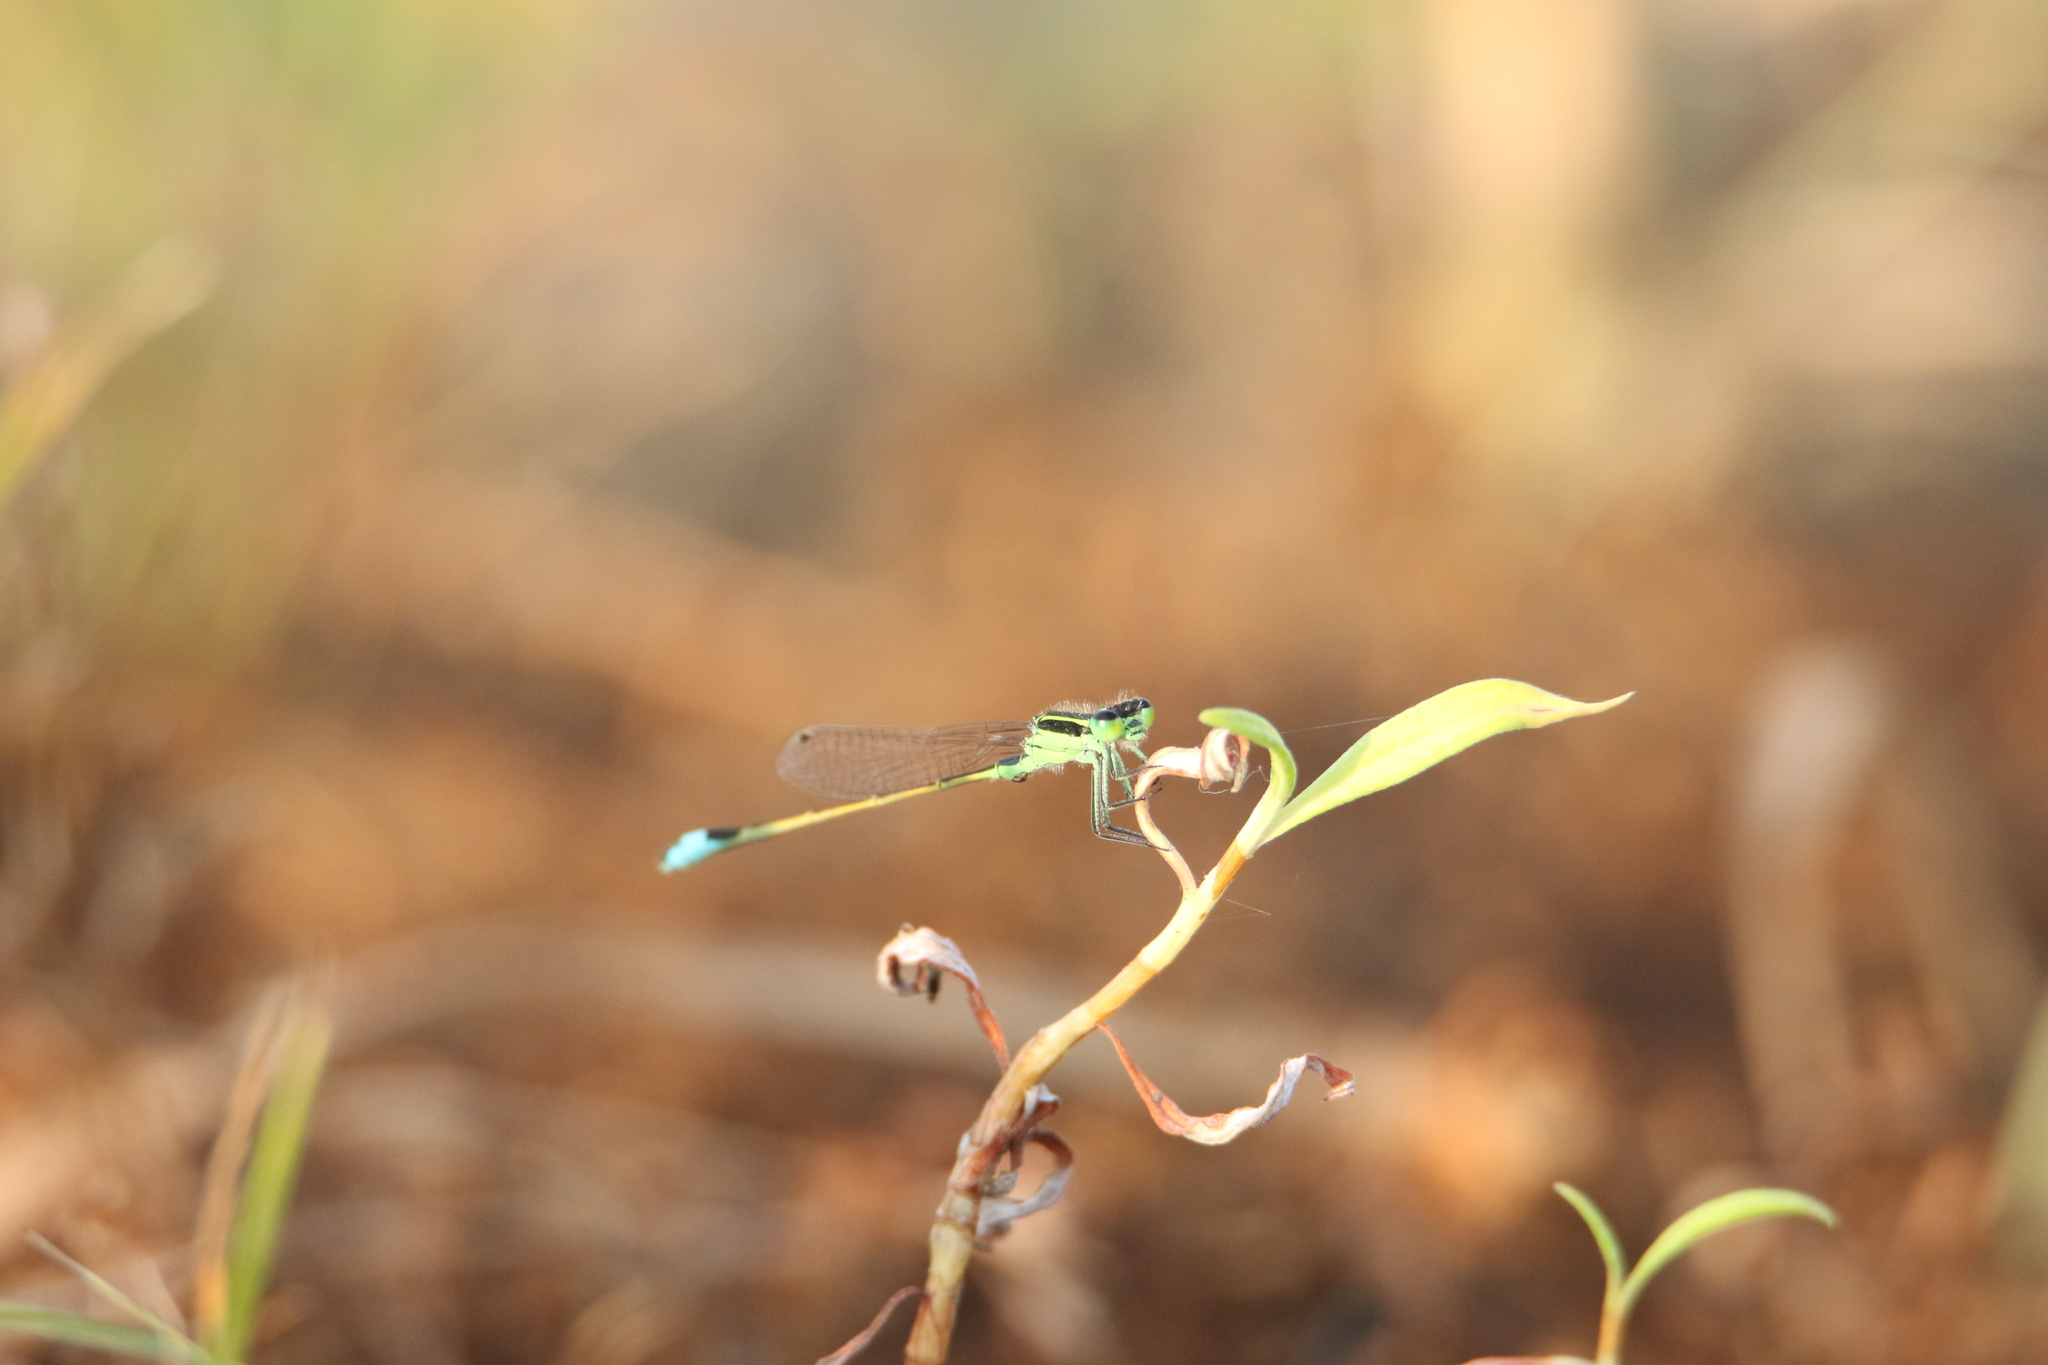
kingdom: Animalia
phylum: Arthropoda
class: Insecta
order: Odonata
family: Coenagrionidae
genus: Ischnura
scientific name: Ischnura ramburii
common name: Rambur's forktail
